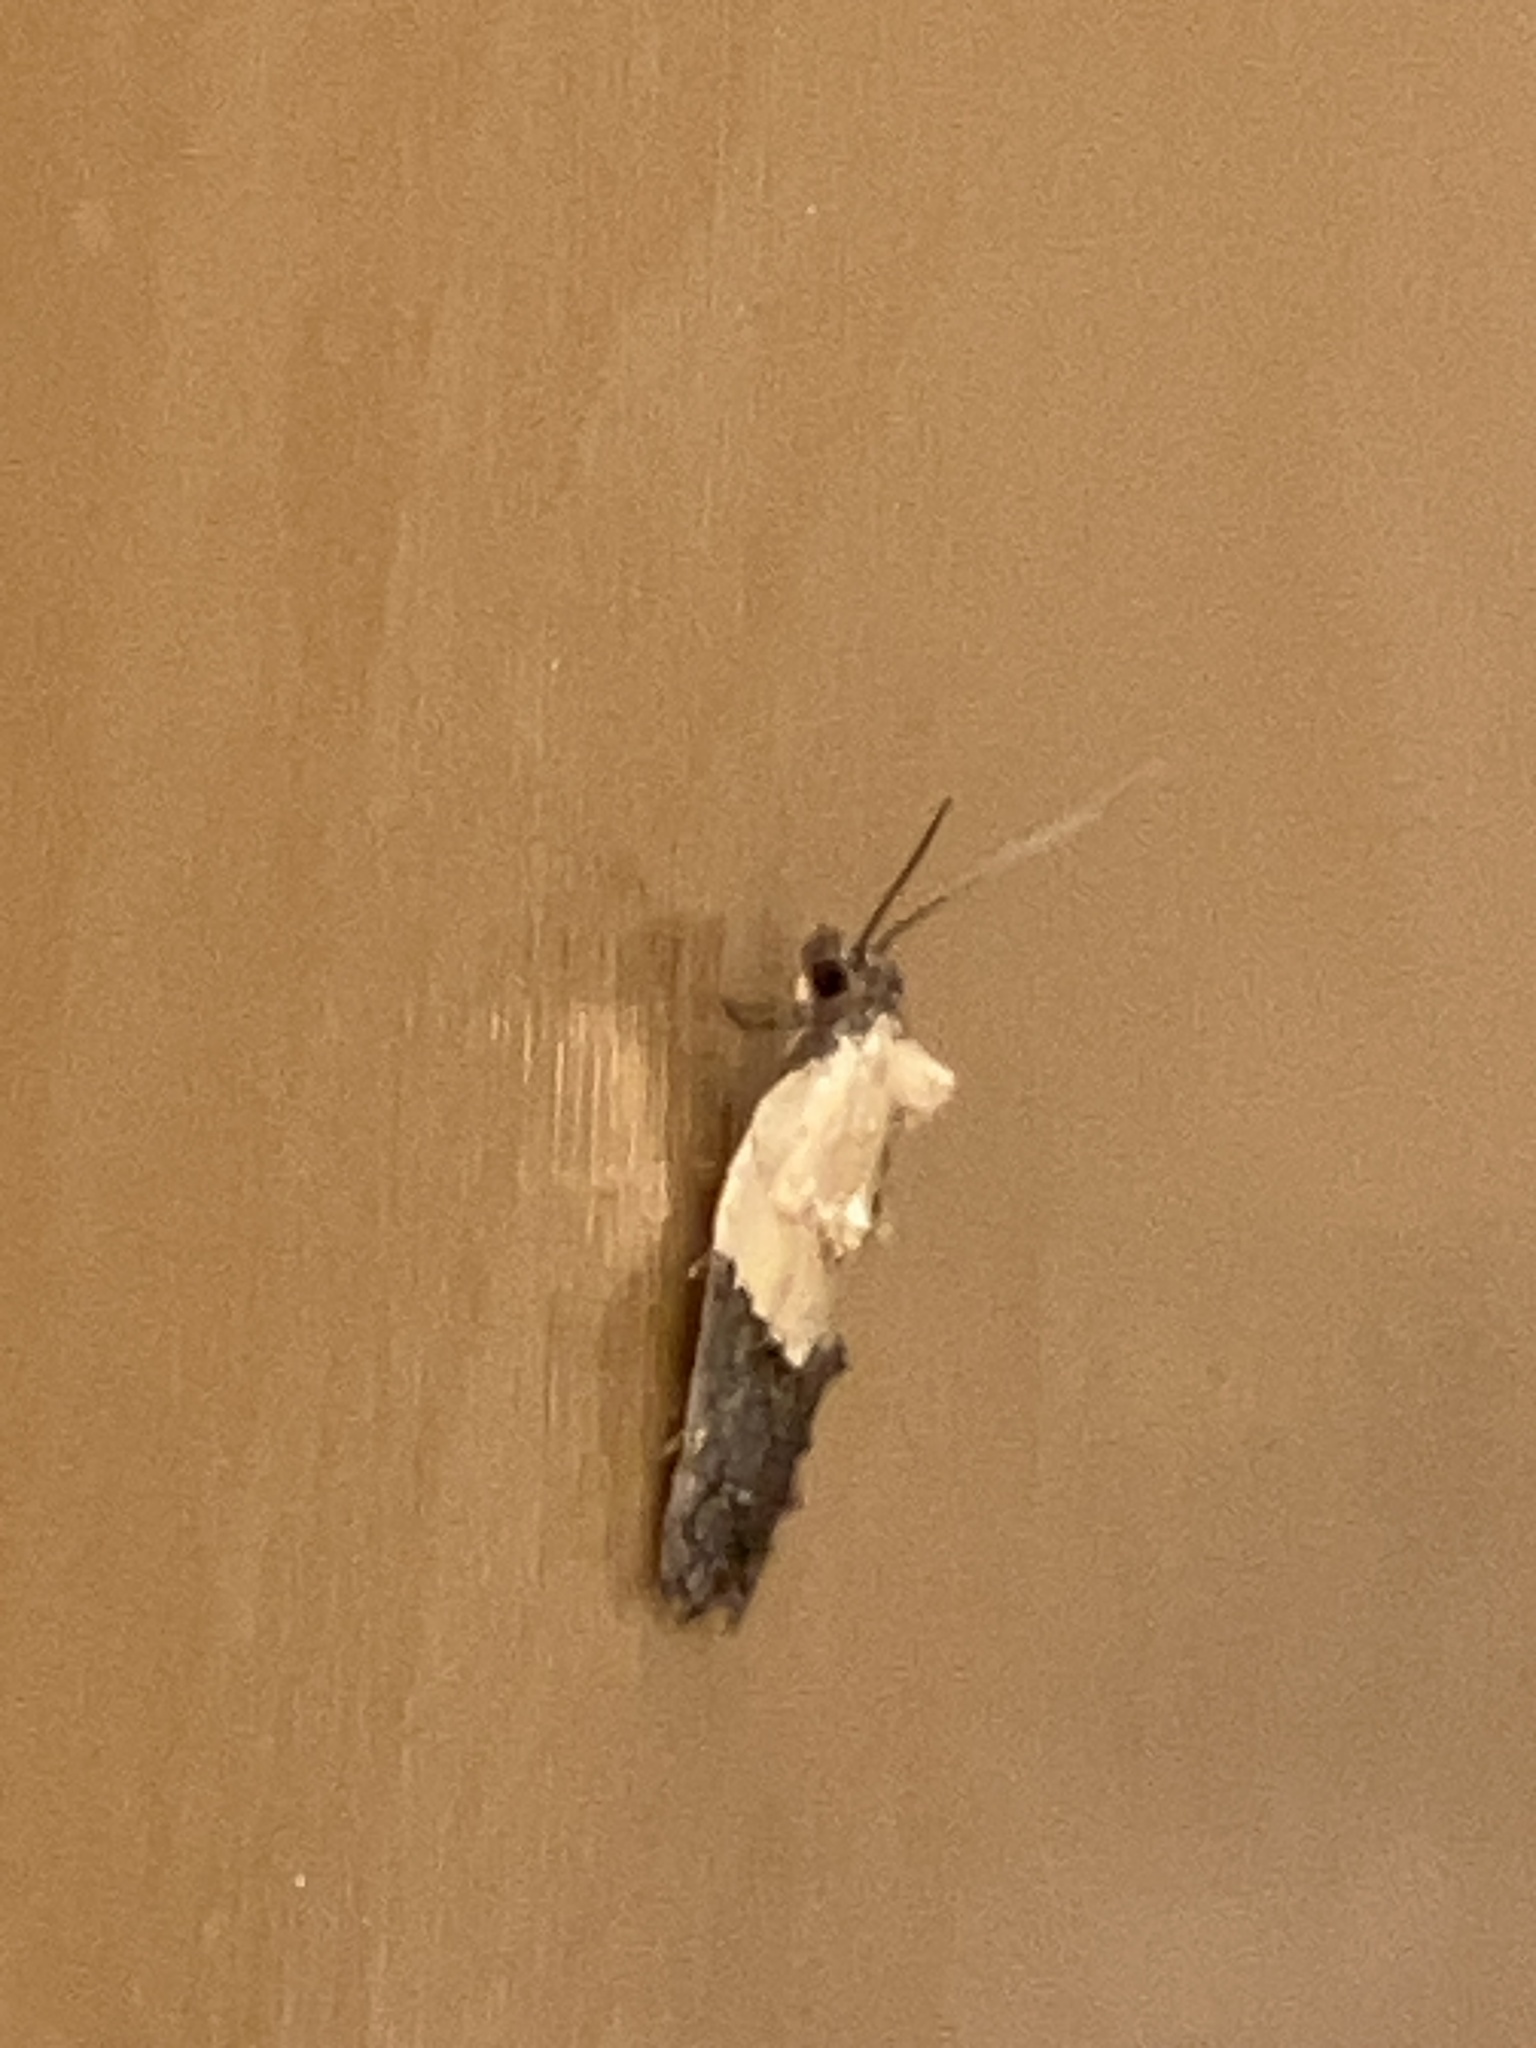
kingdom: Animalia
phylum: Arthropoda
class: Insecta
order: Lepidoptera
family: Tortricidae
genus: Acleris
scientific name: Acleris variegana
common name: Garden rose tortrix
